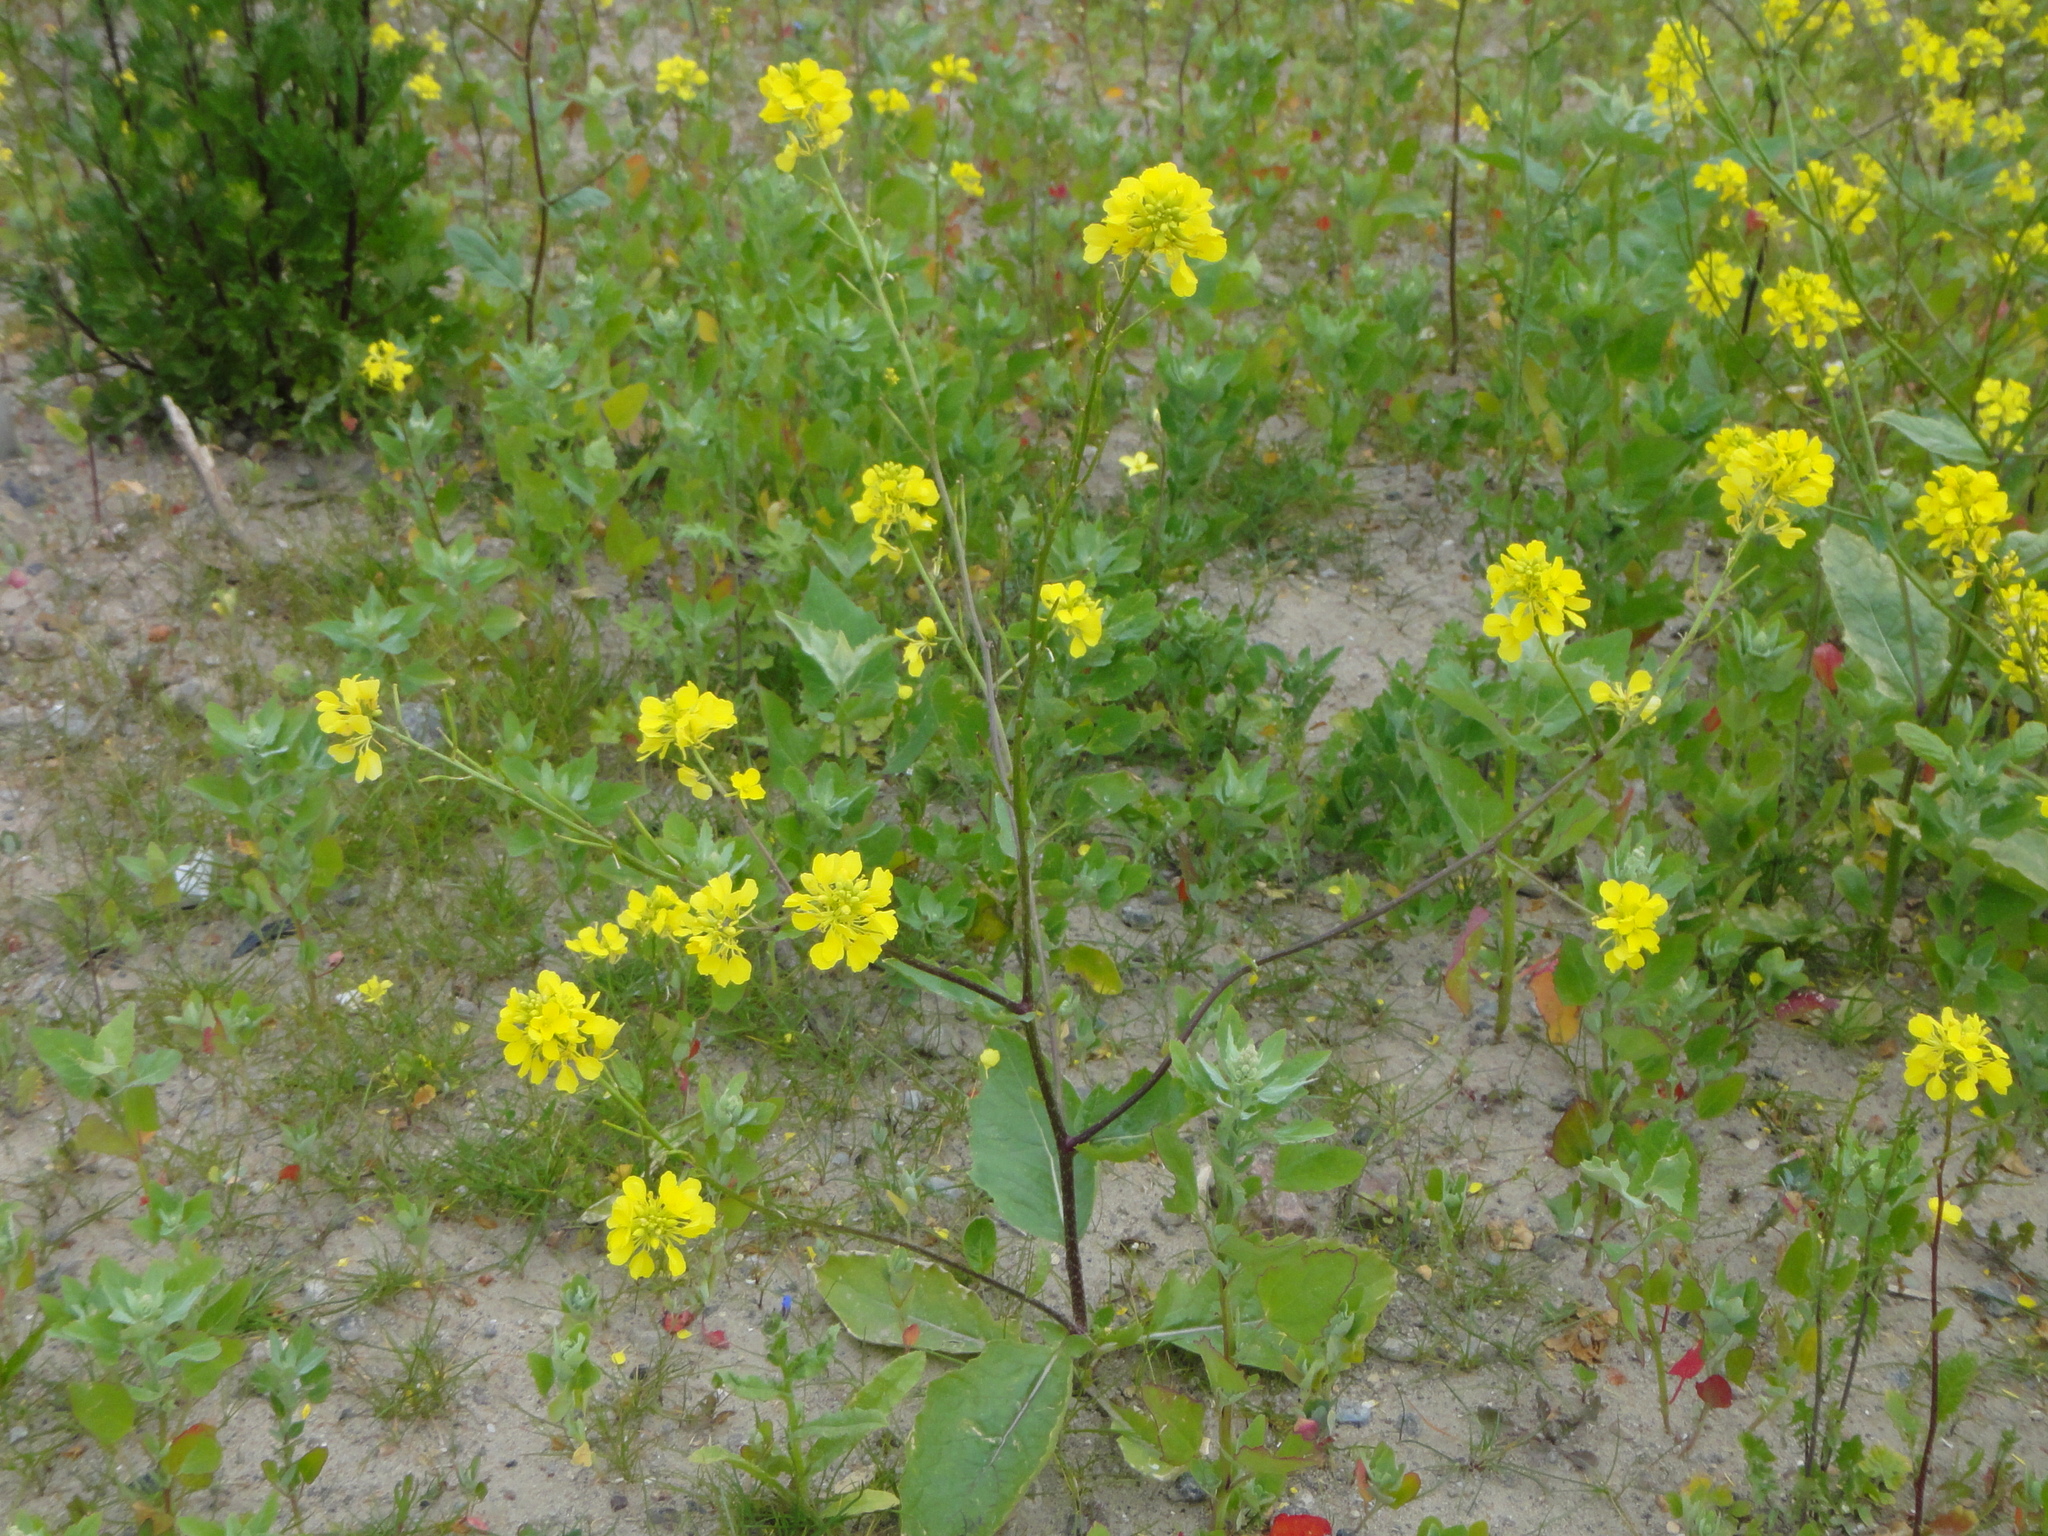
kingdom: Plantae
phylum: Tracheophyta
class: Magnoliopsida
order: Brassicales
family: Brassicaceae
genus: Sinapis
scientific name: Sinapis arvensis
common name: Charlock
